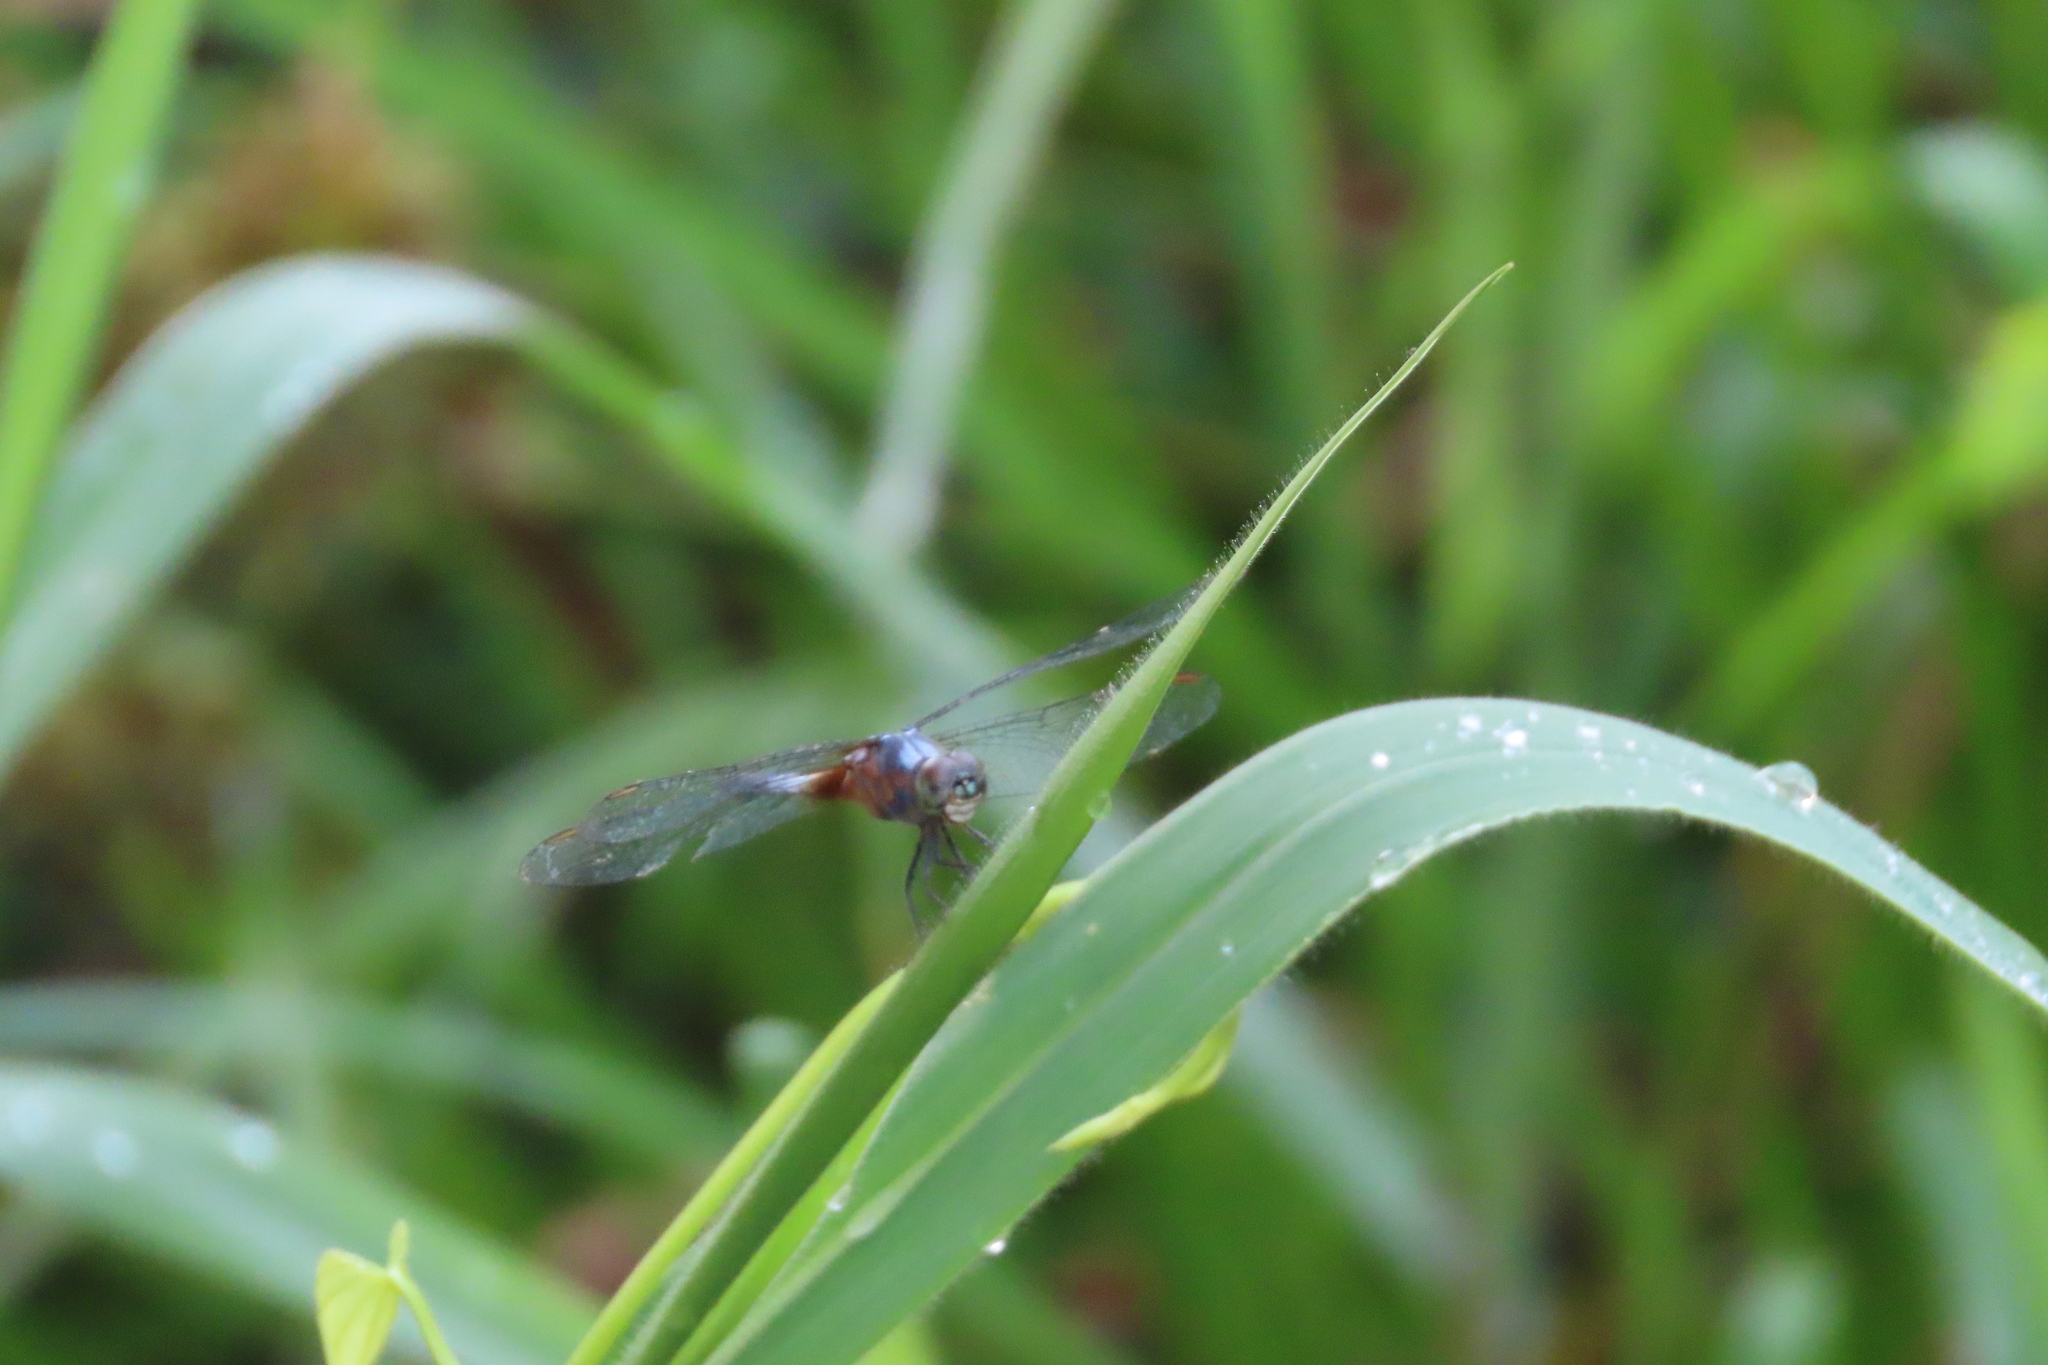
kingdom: Animalia
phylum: Arthropoda
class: Insecta
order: Odonata
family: Libellulidae
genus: Brachydiplax
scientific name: Brachydiplax chalybea
